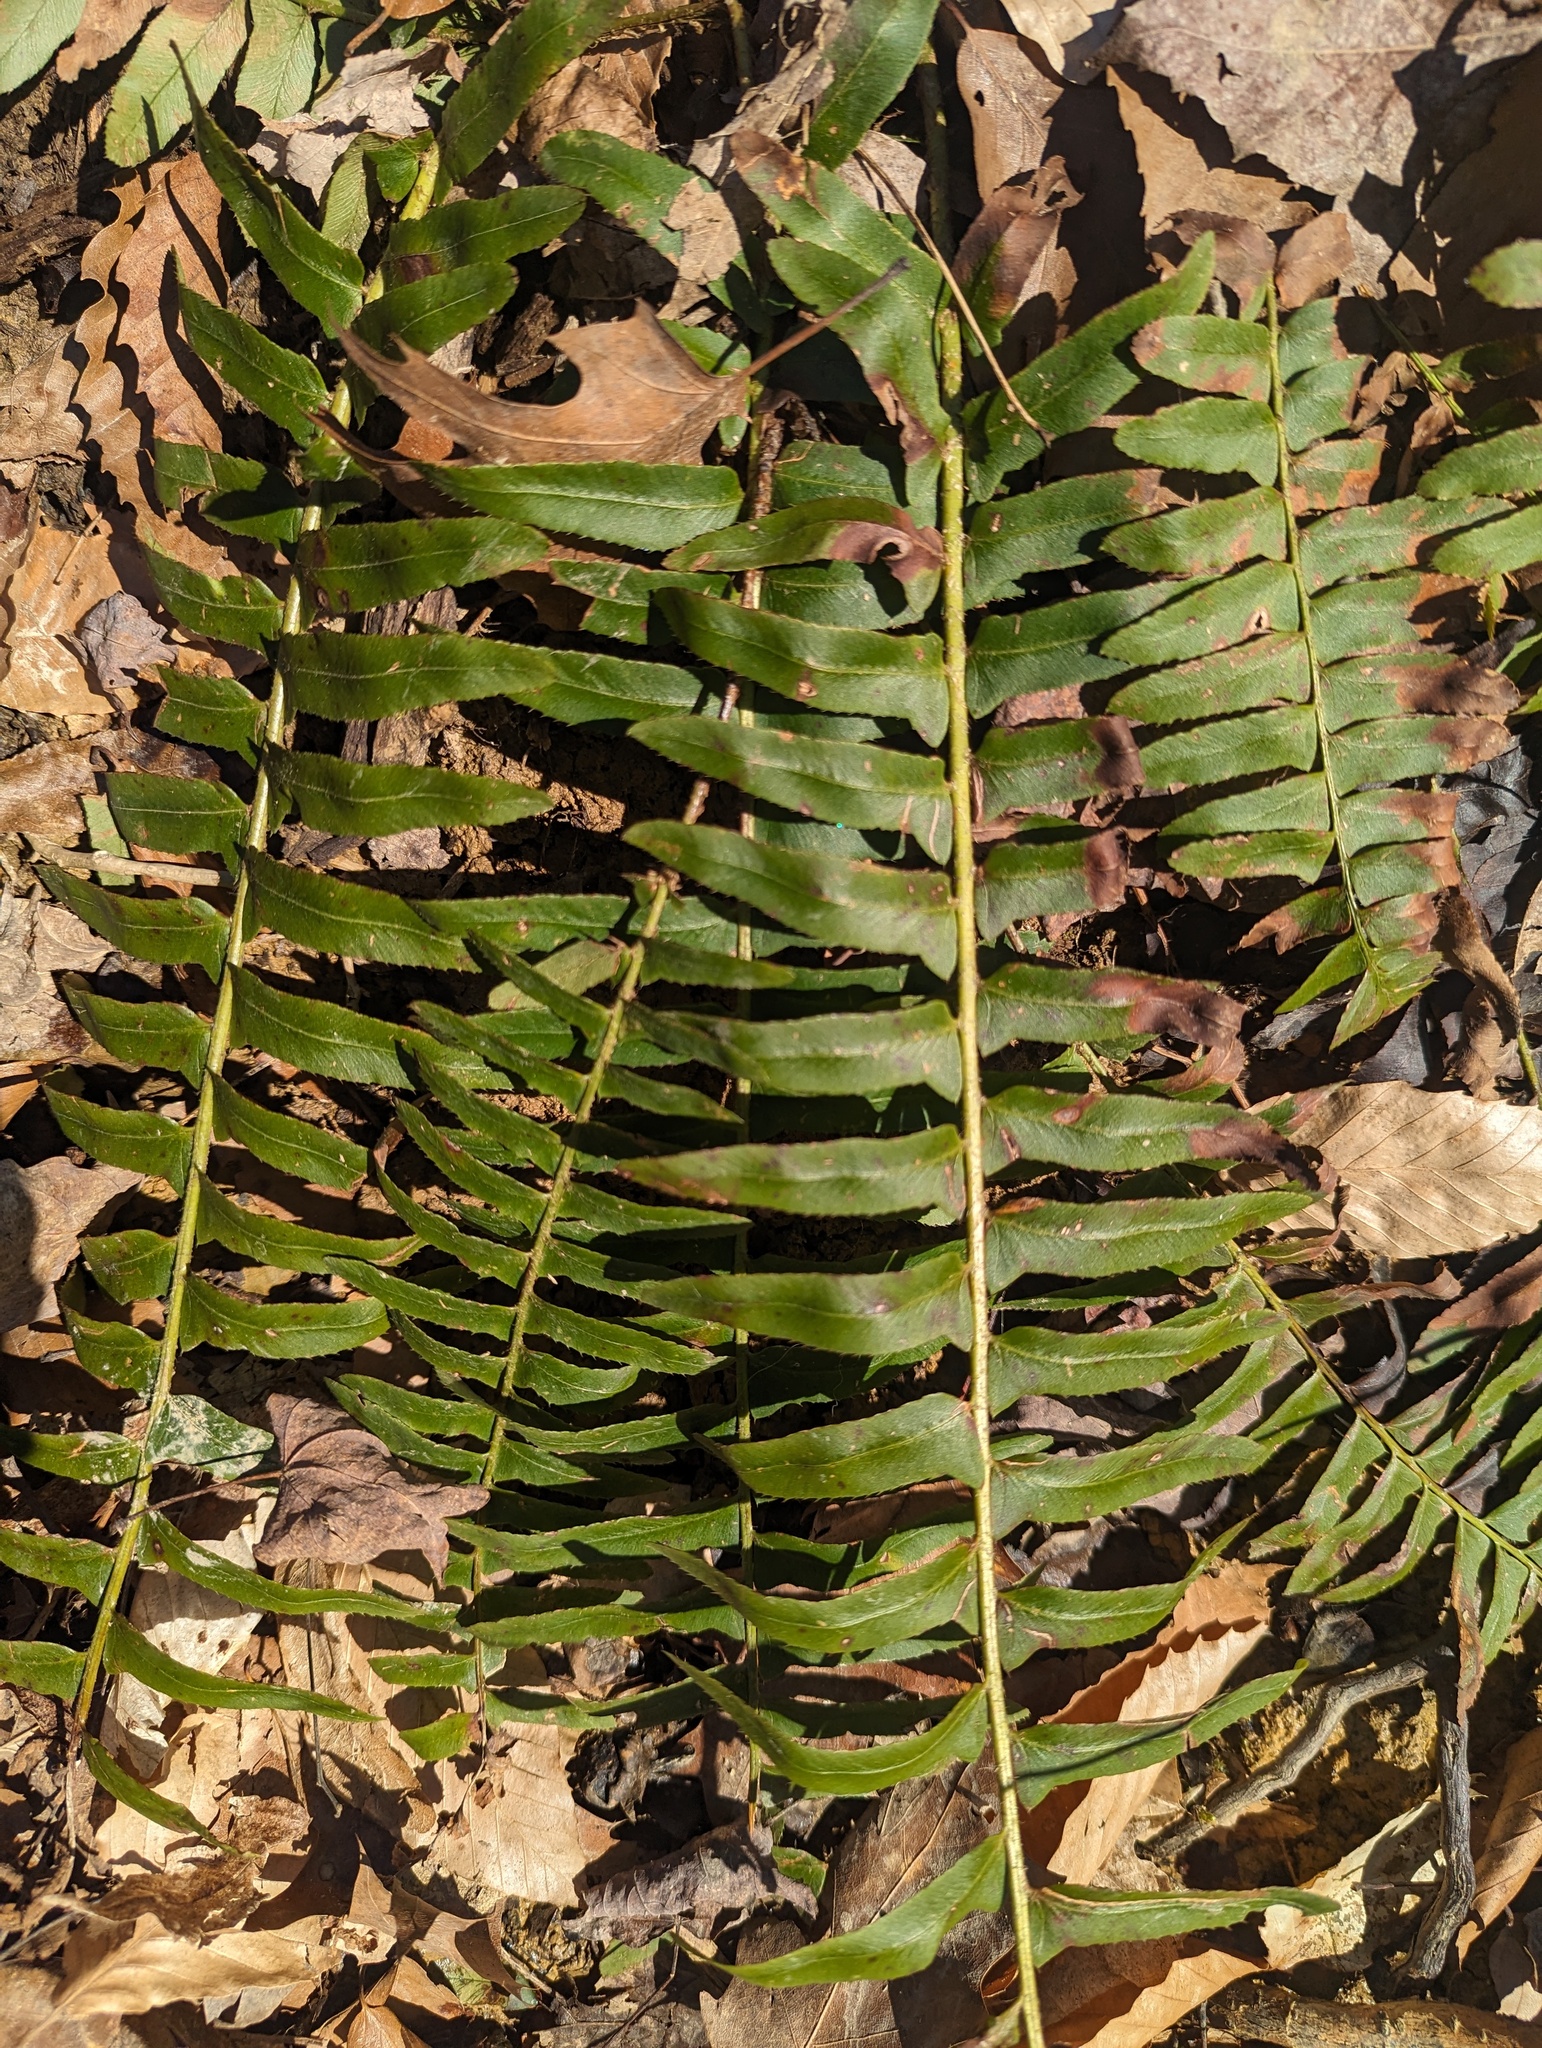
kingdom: Plantae
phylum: Tracheophyta
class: Polypodiopsida
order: Polypodiales
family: Dryopteridaceae
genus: Polystichum
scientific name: Polystichum acrostichoides
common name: Christmas fern
